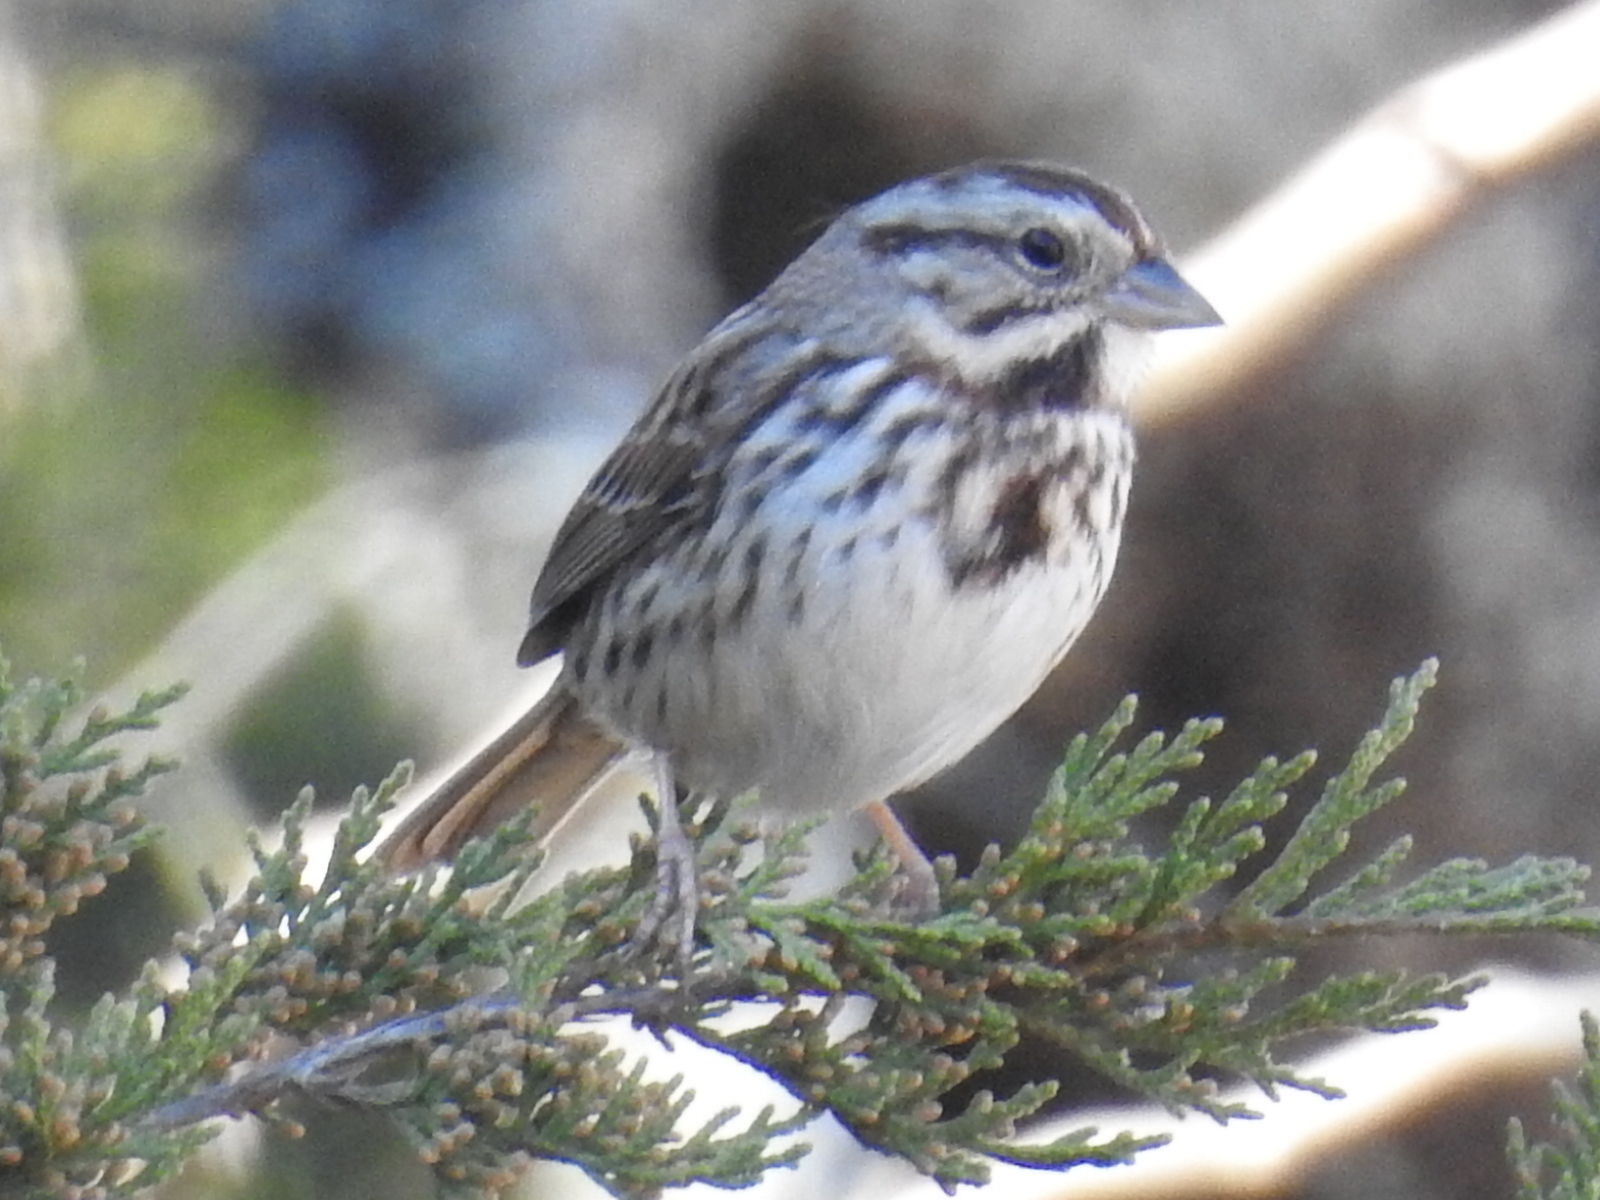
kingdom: Animalia
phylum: Chordata
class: Aves
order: Passeriformes
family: Passerellidae
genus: Melospiza
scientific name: Melospiza melodia
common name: Song sparrow
